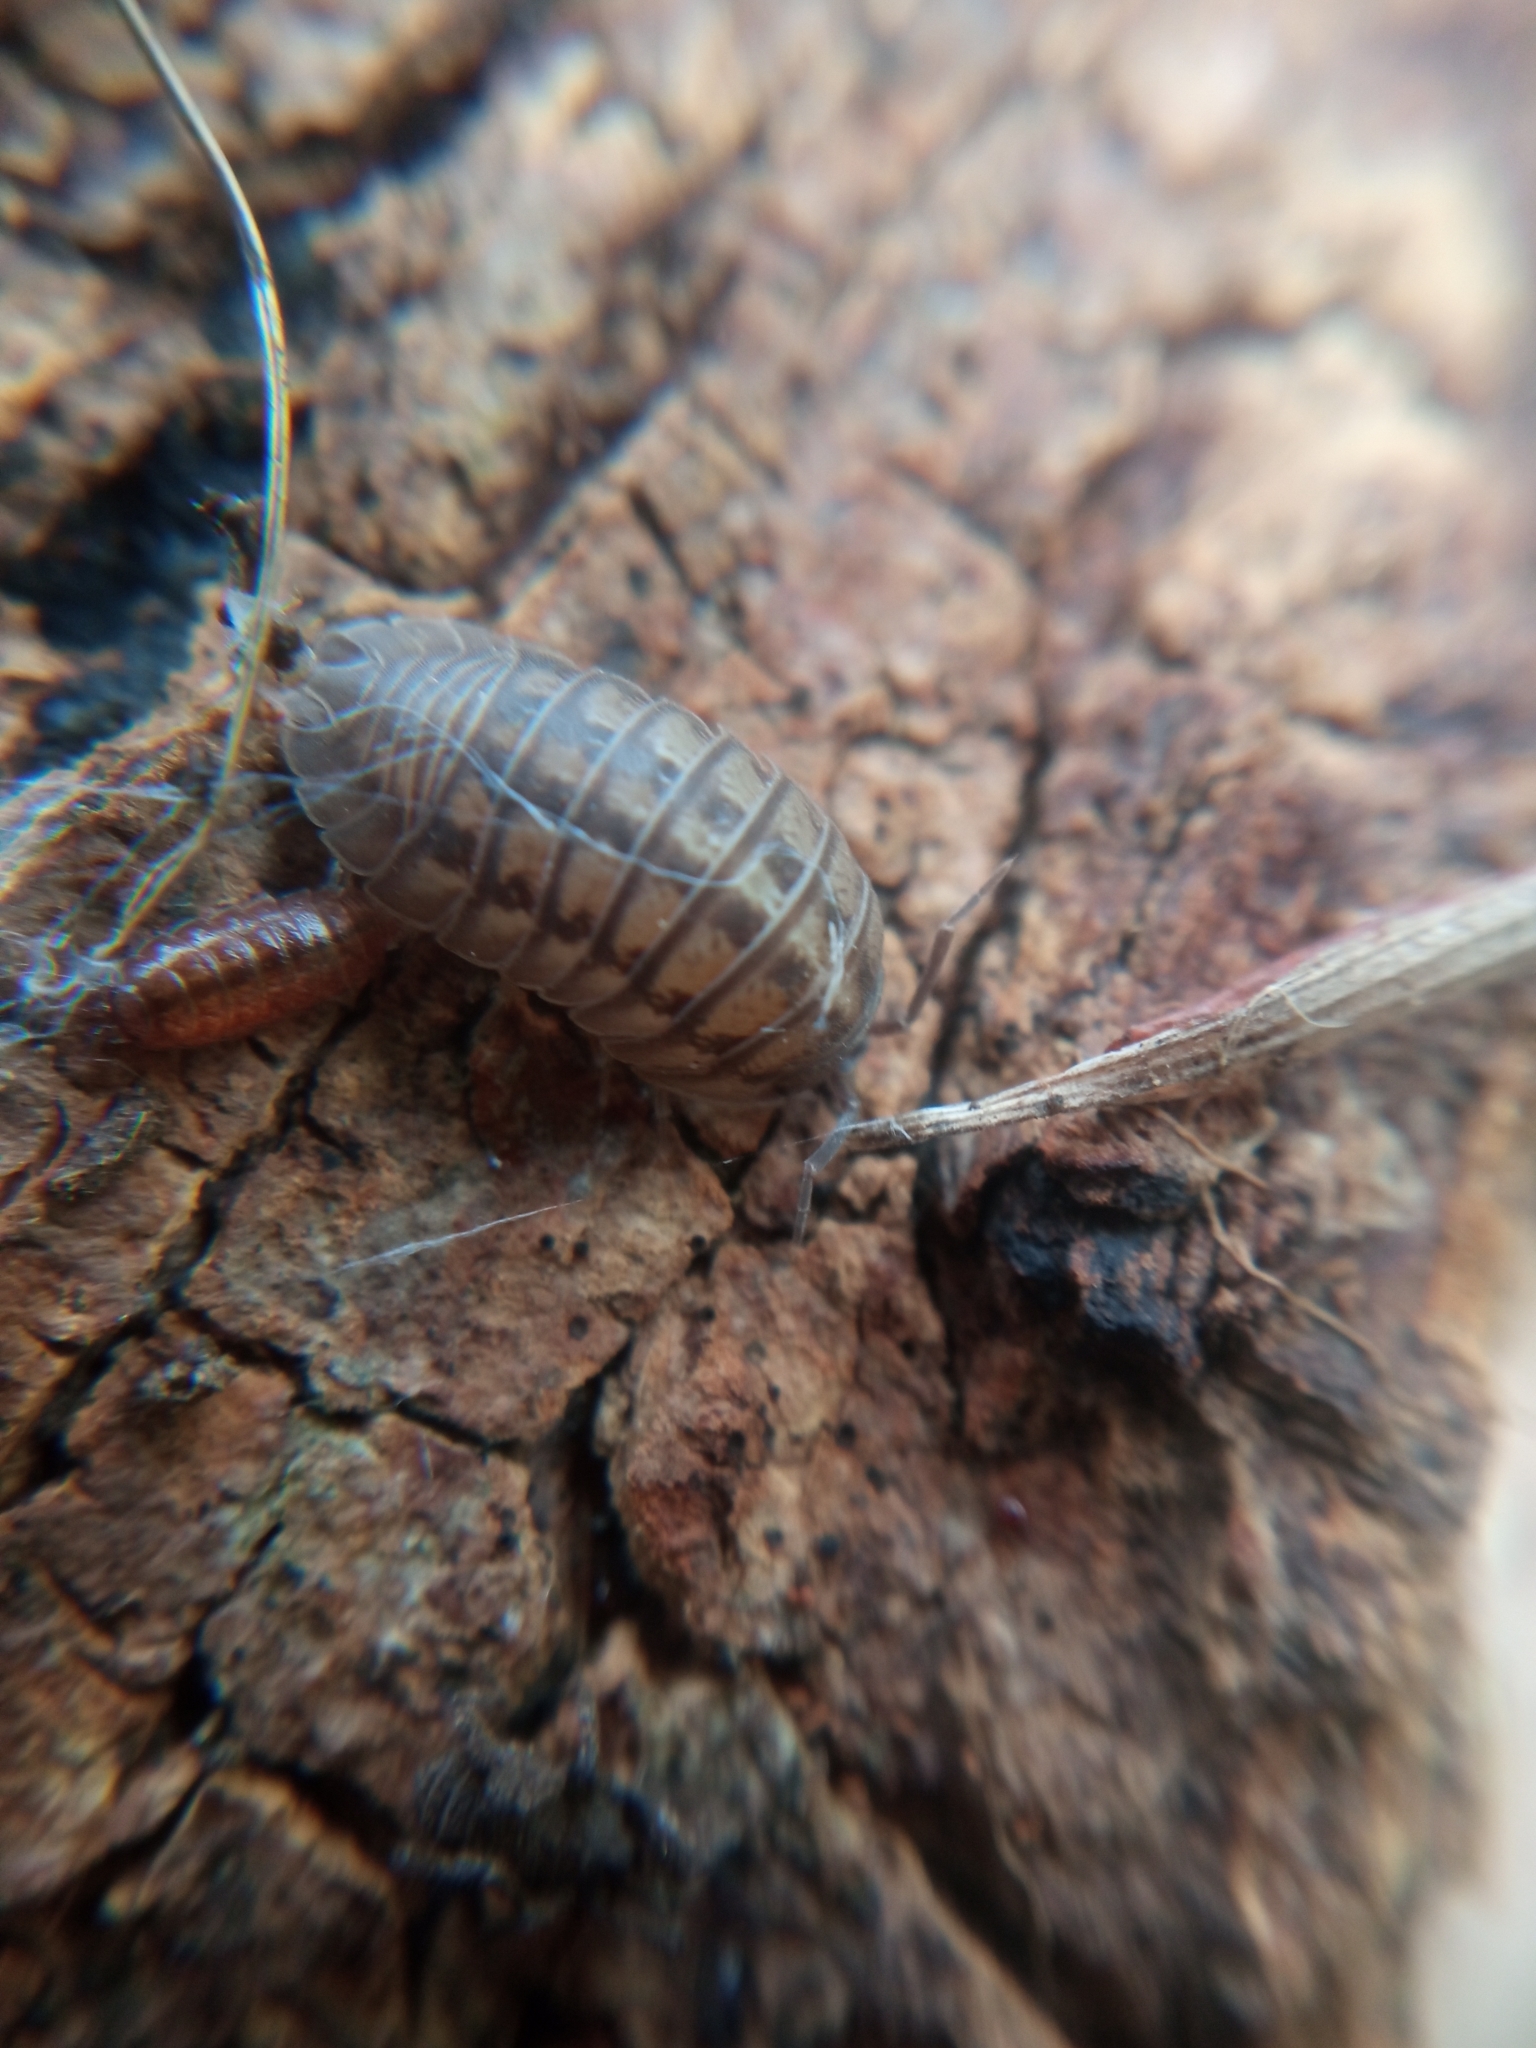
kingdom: Animalia
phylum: Arthropoda
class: Malacostraca
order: Isopoda
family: Armadillidiidae
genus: Armadillidium
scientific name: Armadillidium nasatum
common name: Isopod
